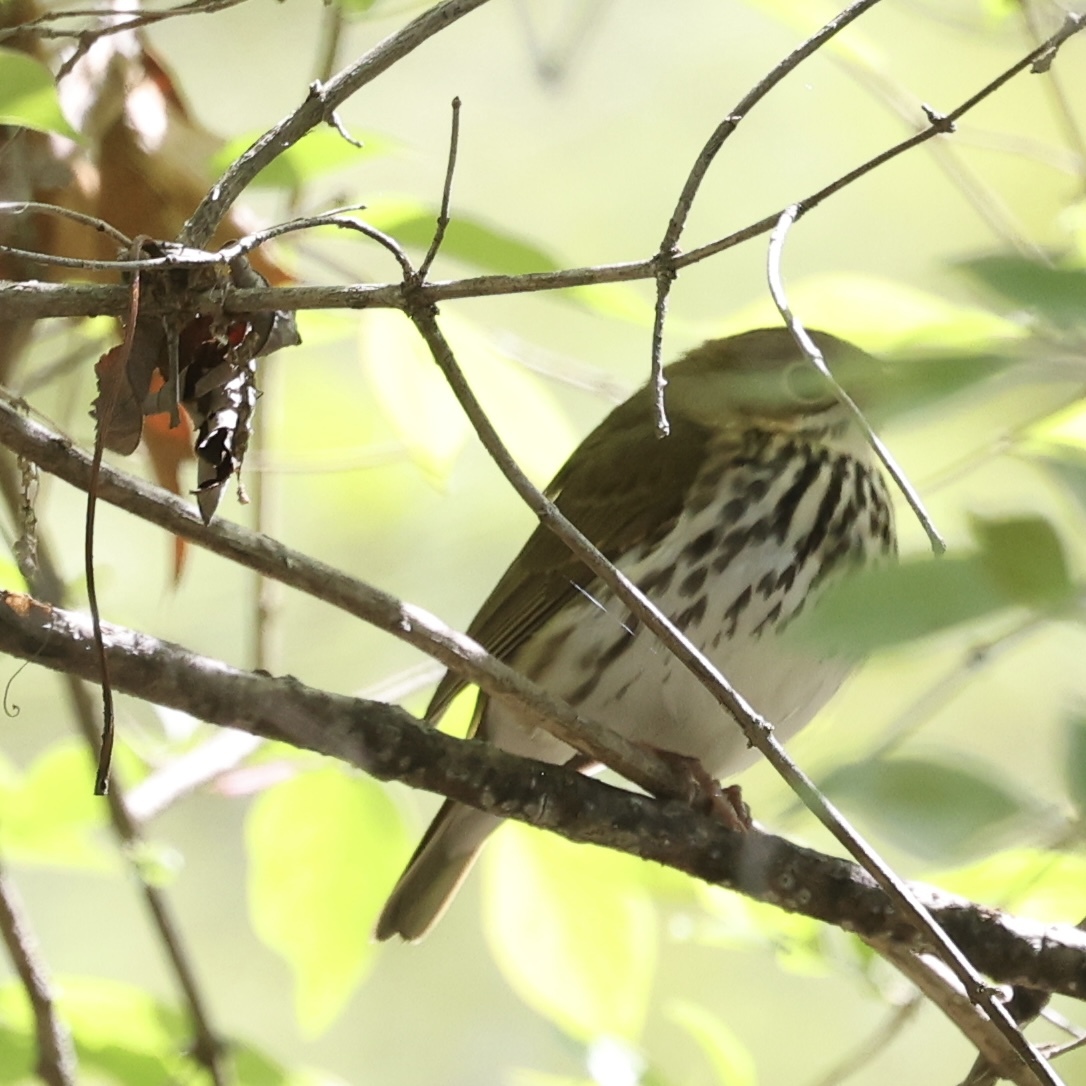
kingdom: Animalia
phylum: Chordata
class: Aves
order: Passeriformes
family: Parulidae
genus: Seiurus
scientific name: Seiurus aurocapilla
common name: Ovenbird
